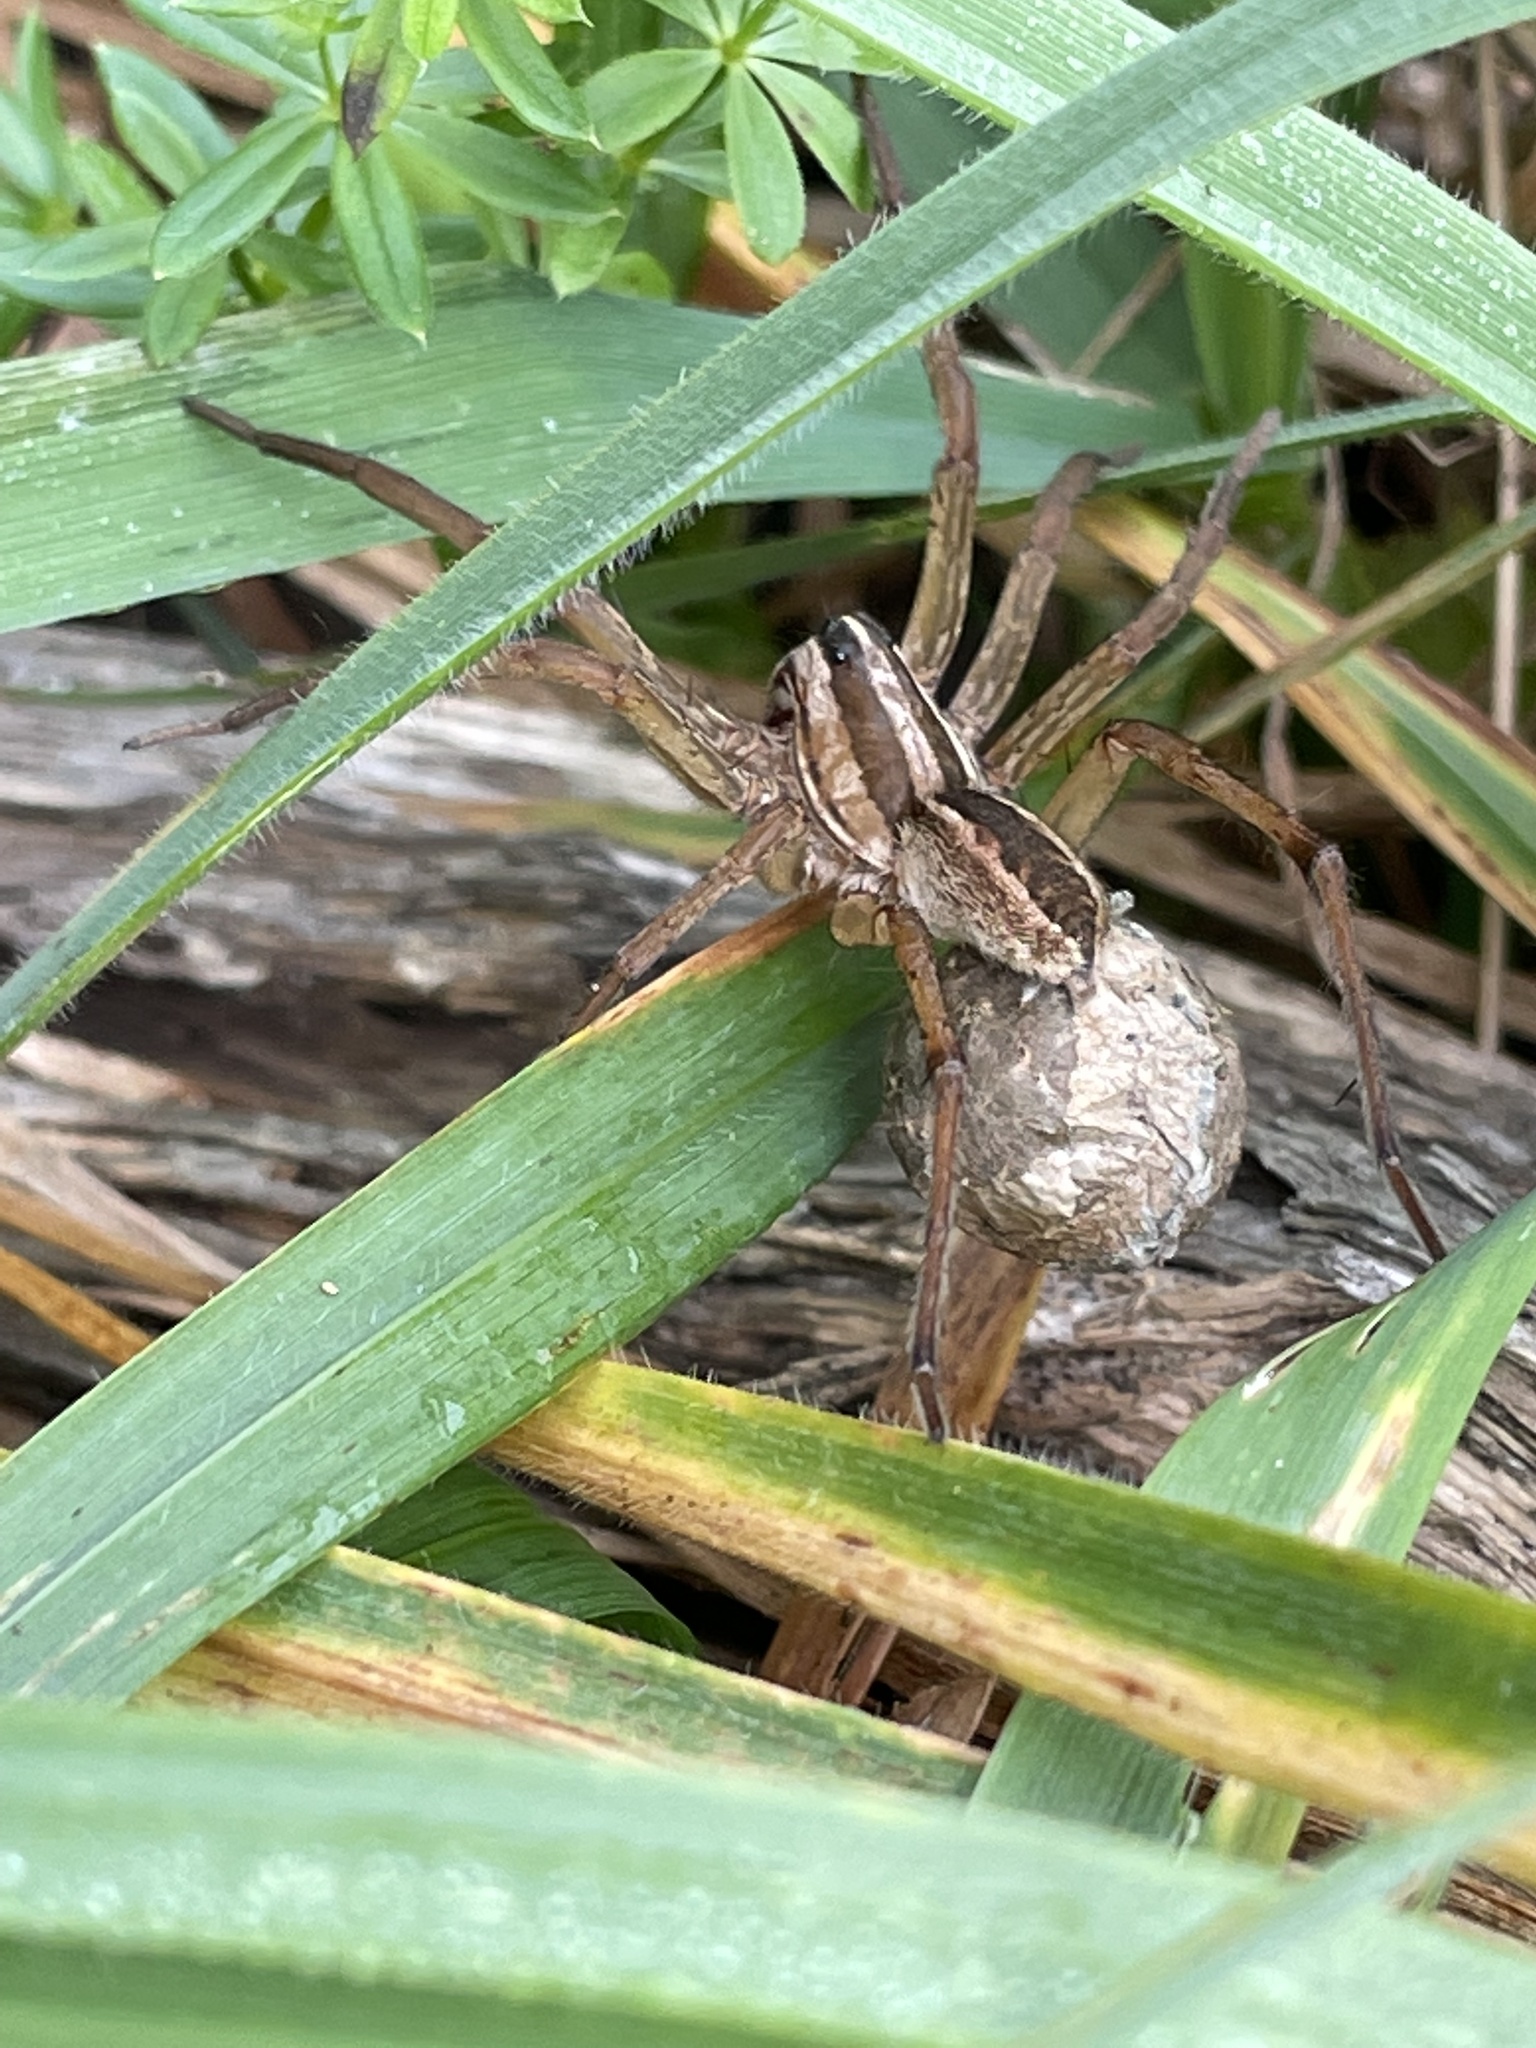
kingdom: Animalia
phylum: Arthropoda
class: Arachnida
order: Araneae
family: Lycosidae
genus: Rabidosa
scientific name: Rabidosa rabida
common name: Rabid wolf spider
